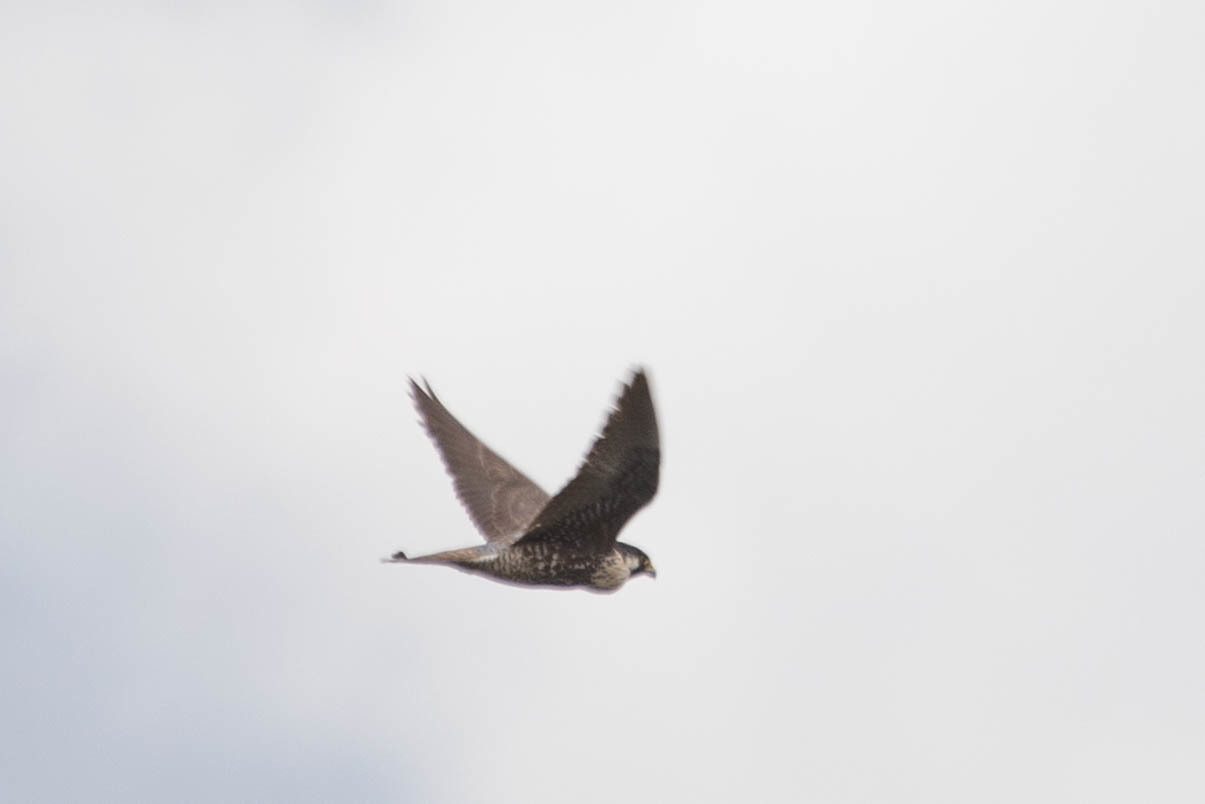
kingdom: Animalia
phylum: Chordata
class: Aves
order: Falconiformes
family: Falconidae
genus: Falco
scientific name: Falco peregrinus
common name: Peregrine falcon
